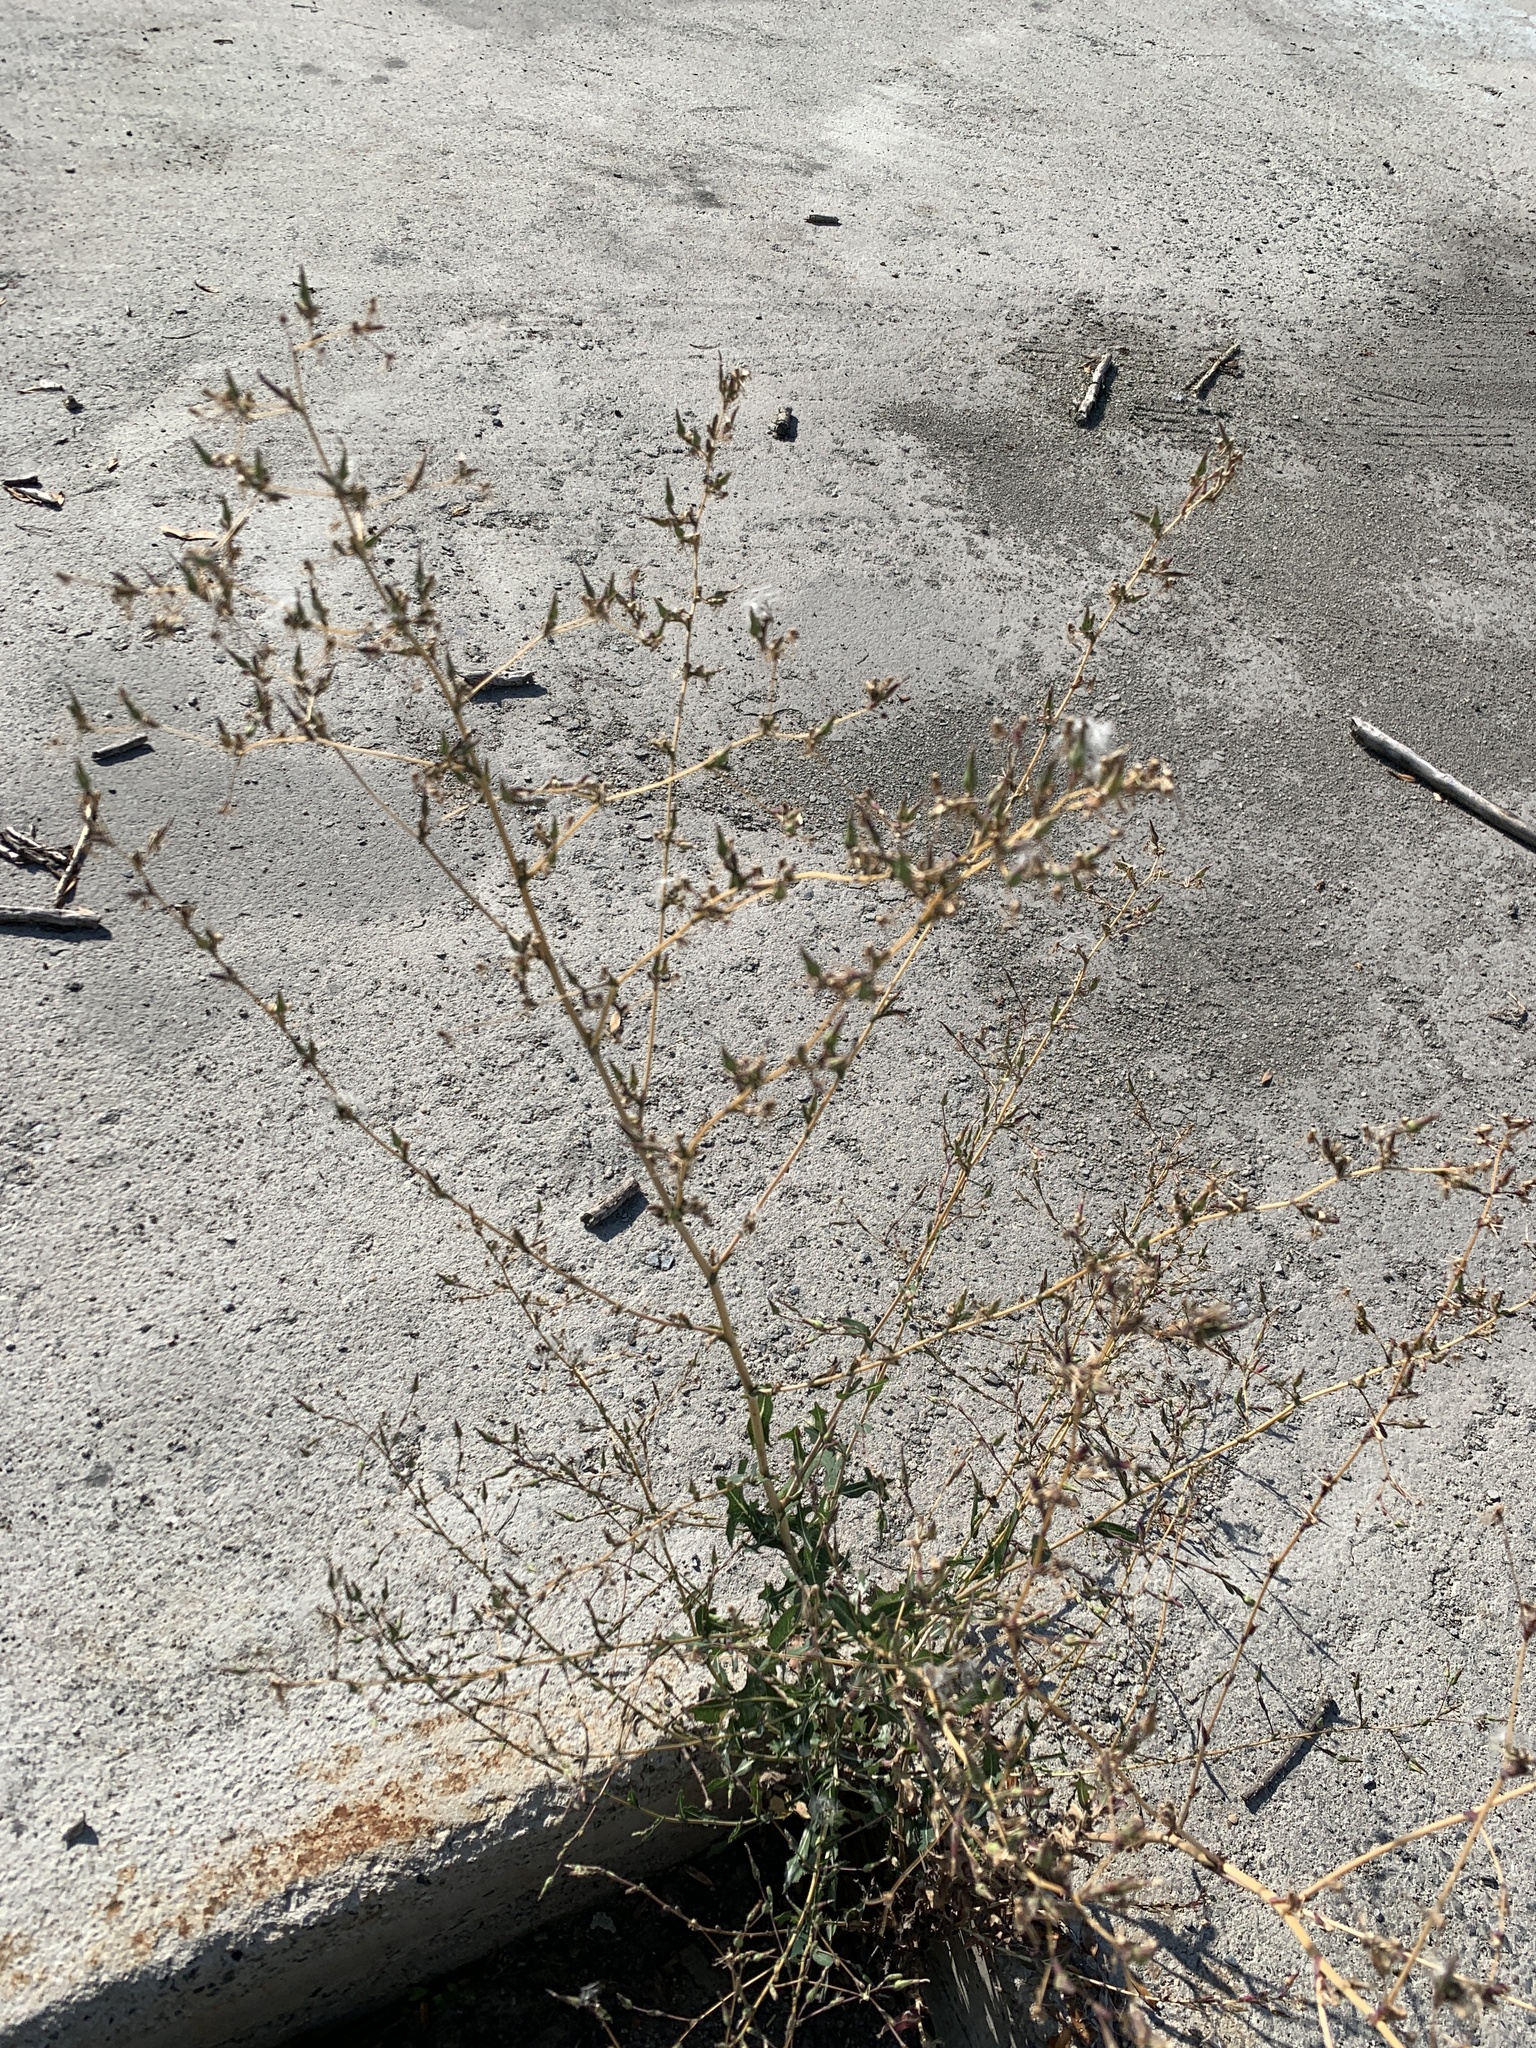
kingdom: Plantae
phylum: Tracheophyta
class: Magnoliopsida
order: Asterales
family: Asteraceae
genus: Lactuca
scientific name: Lactuca serriola
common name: Prickly lettuce
